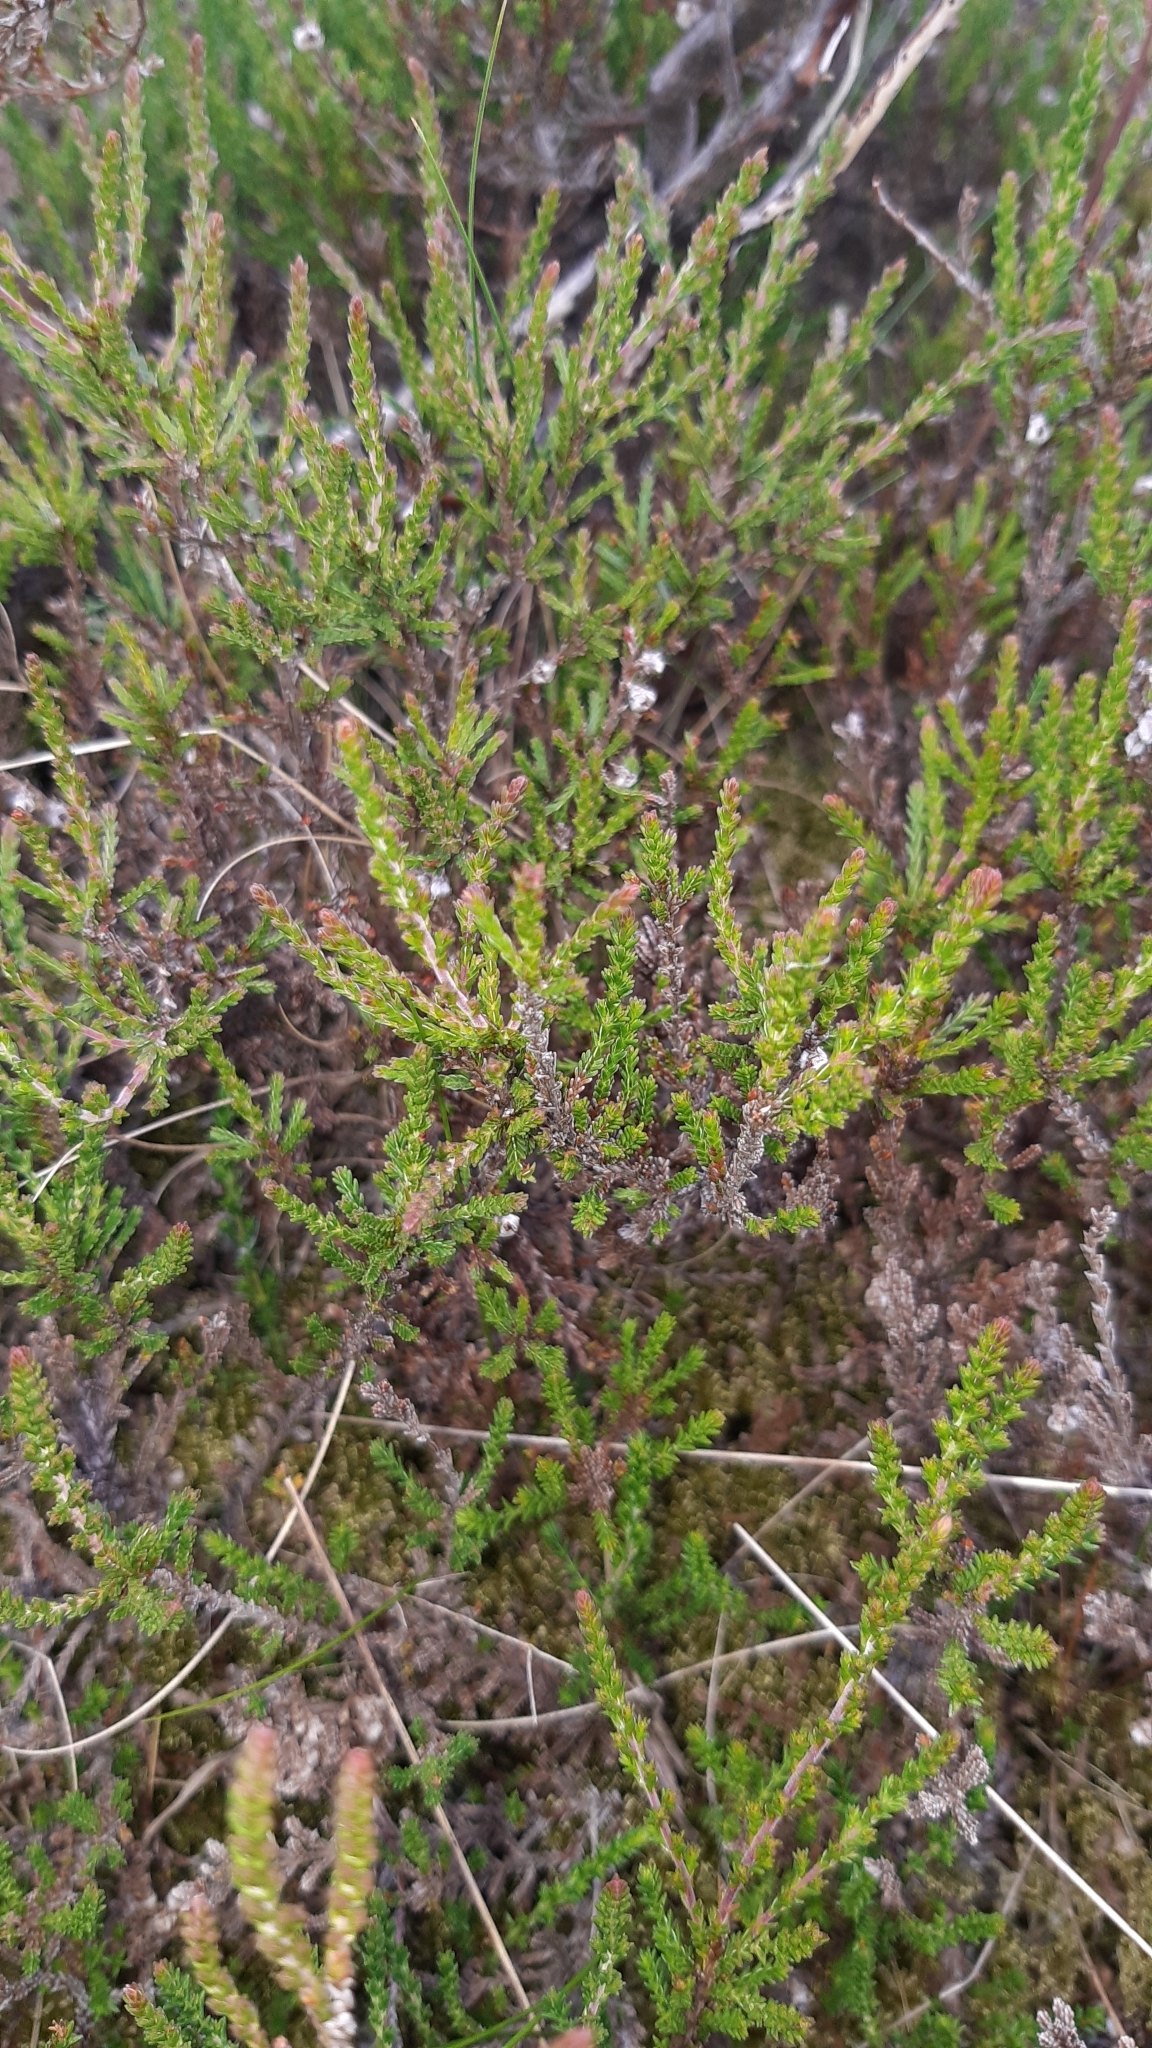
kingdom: Plantae
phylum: Tracheophyta
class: Magnoliopsida
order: Ericales
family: Ericaceae
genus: Calluna
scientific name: Calluna vulgaris
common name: Heather
